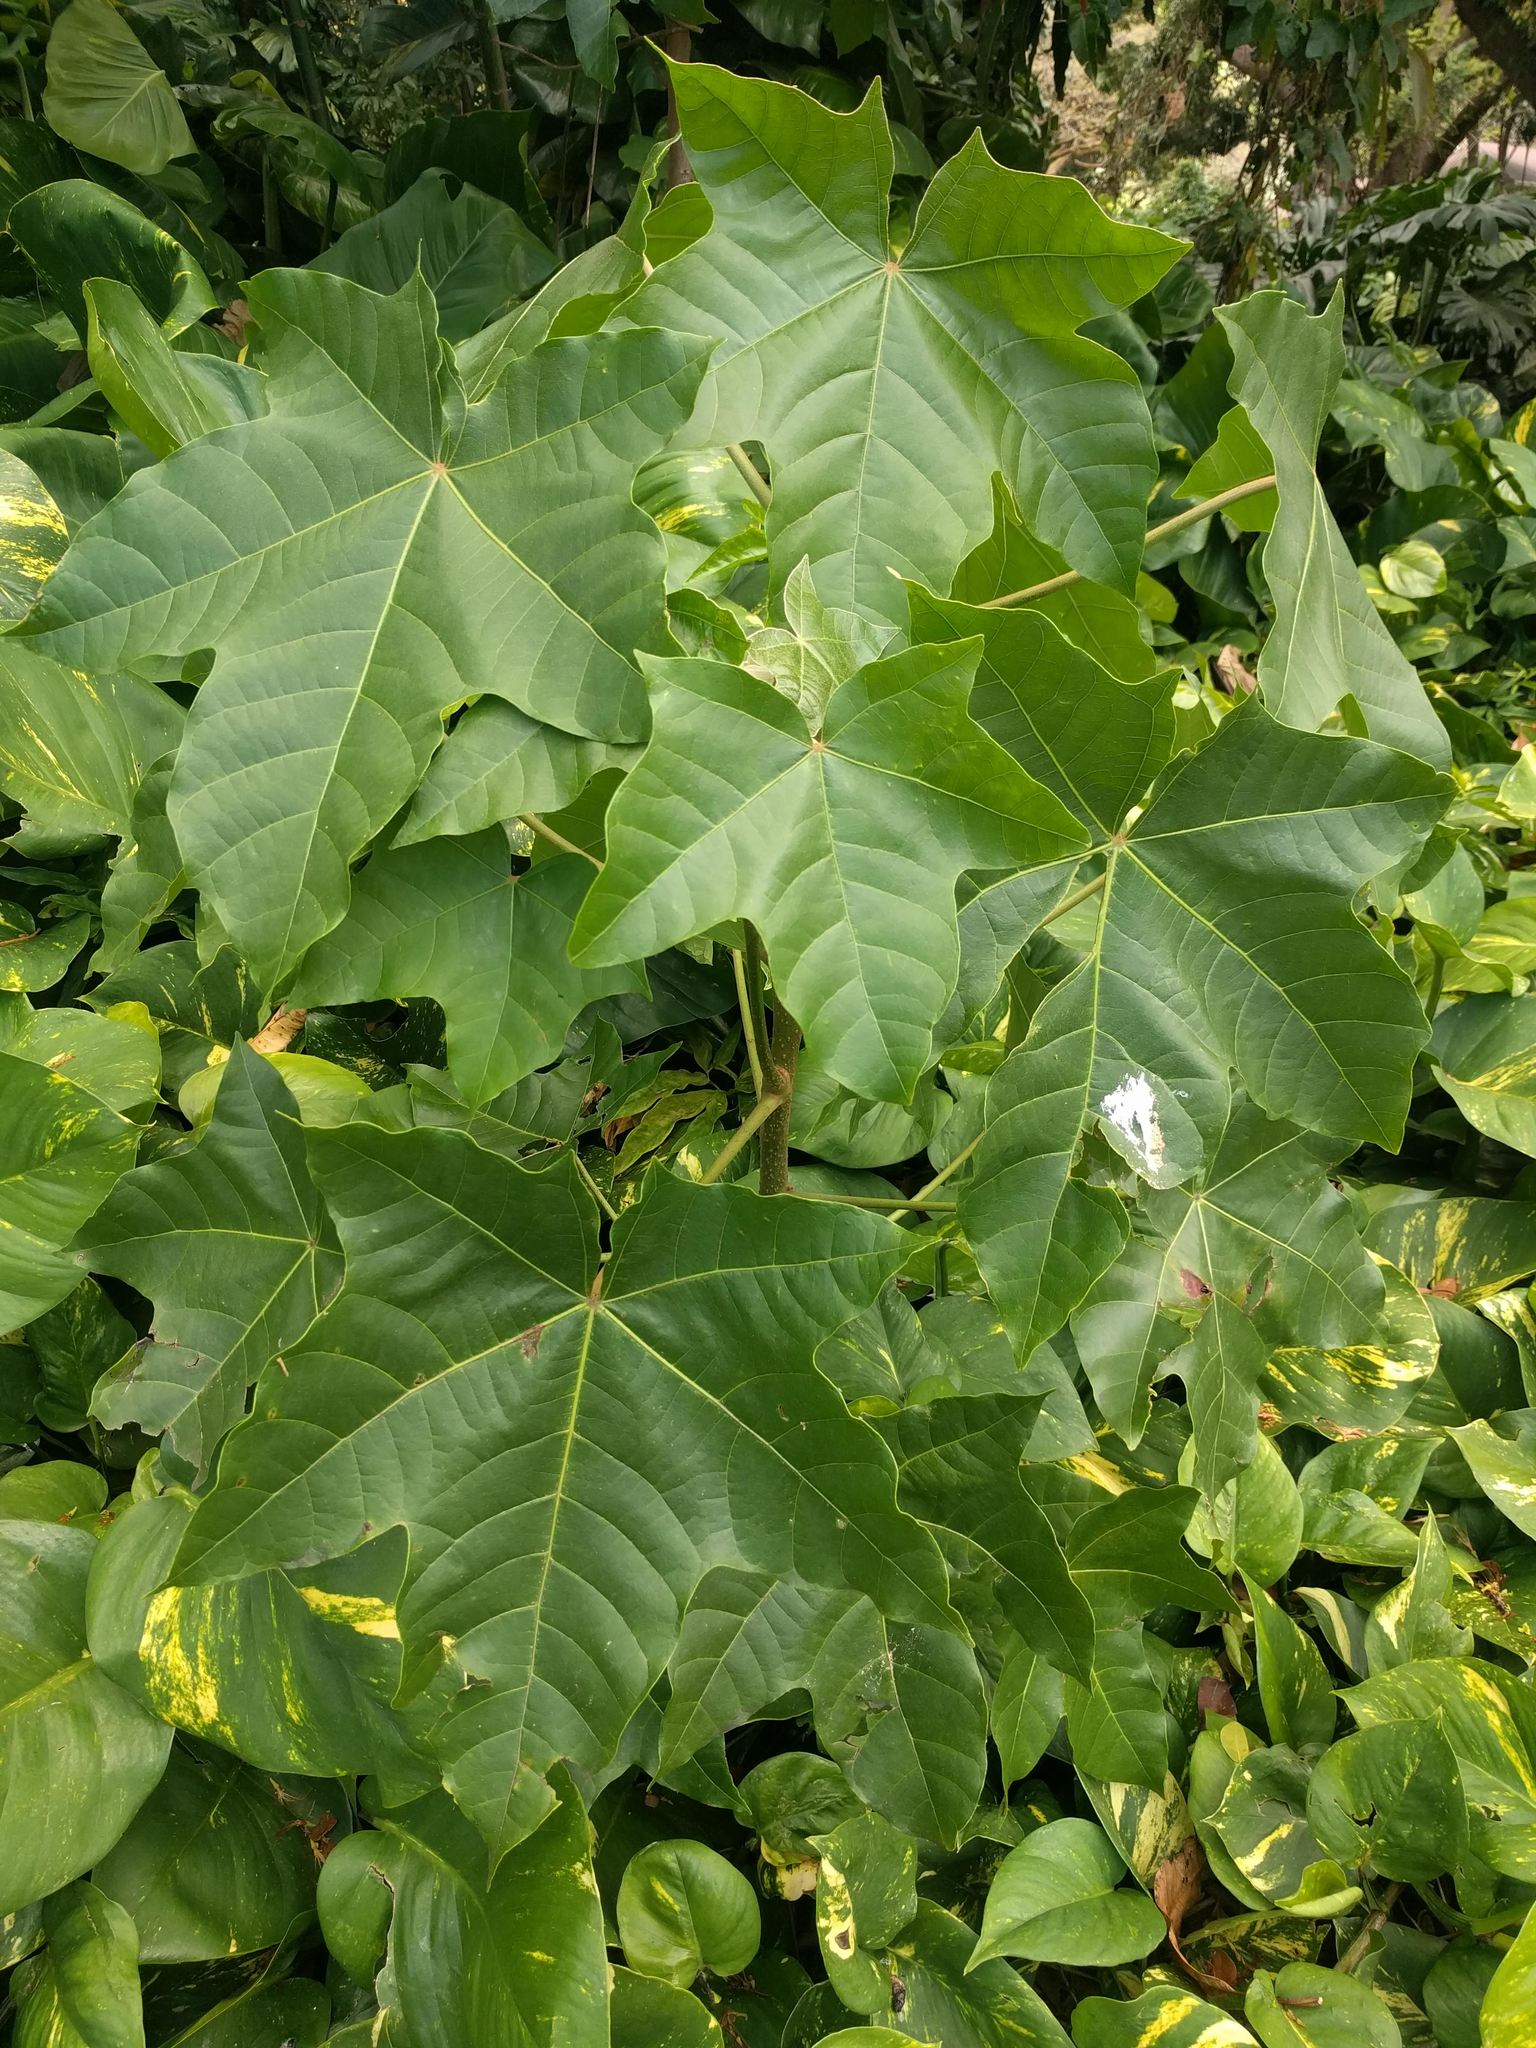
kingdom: Plantae
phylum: Tracheophyta
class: Magnoliopsida
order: Malpighiales
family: Euphorbiaceae
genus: Aleurites
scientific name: Aleurites moluccanus
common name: Candlenut tree
